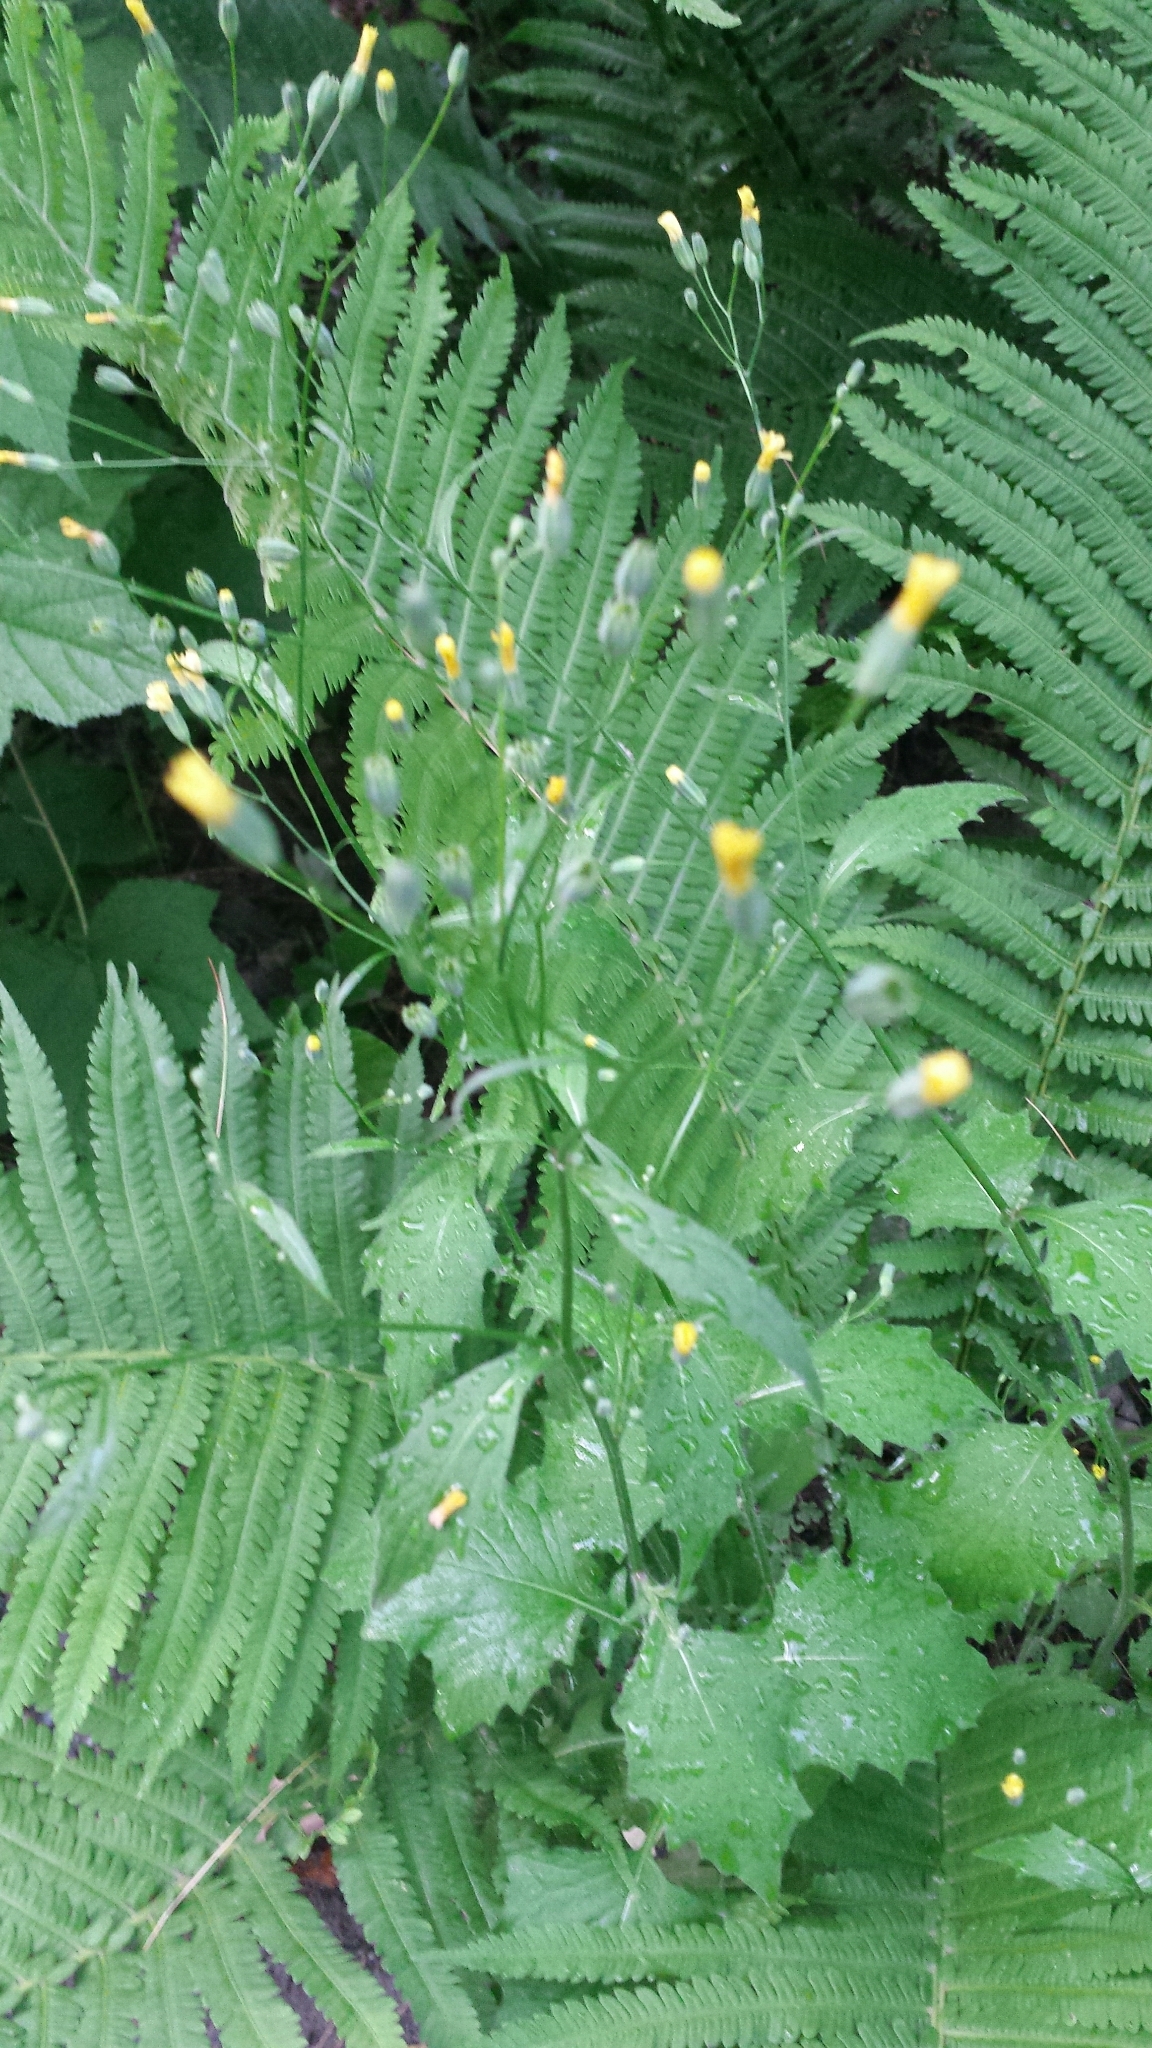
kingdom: Plantae
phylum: Tracheophyta
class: Magnoliopsida
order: Asterales
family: Asteraceae
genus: Lapsana
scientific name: Lapsana communis
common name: Nipplewort
